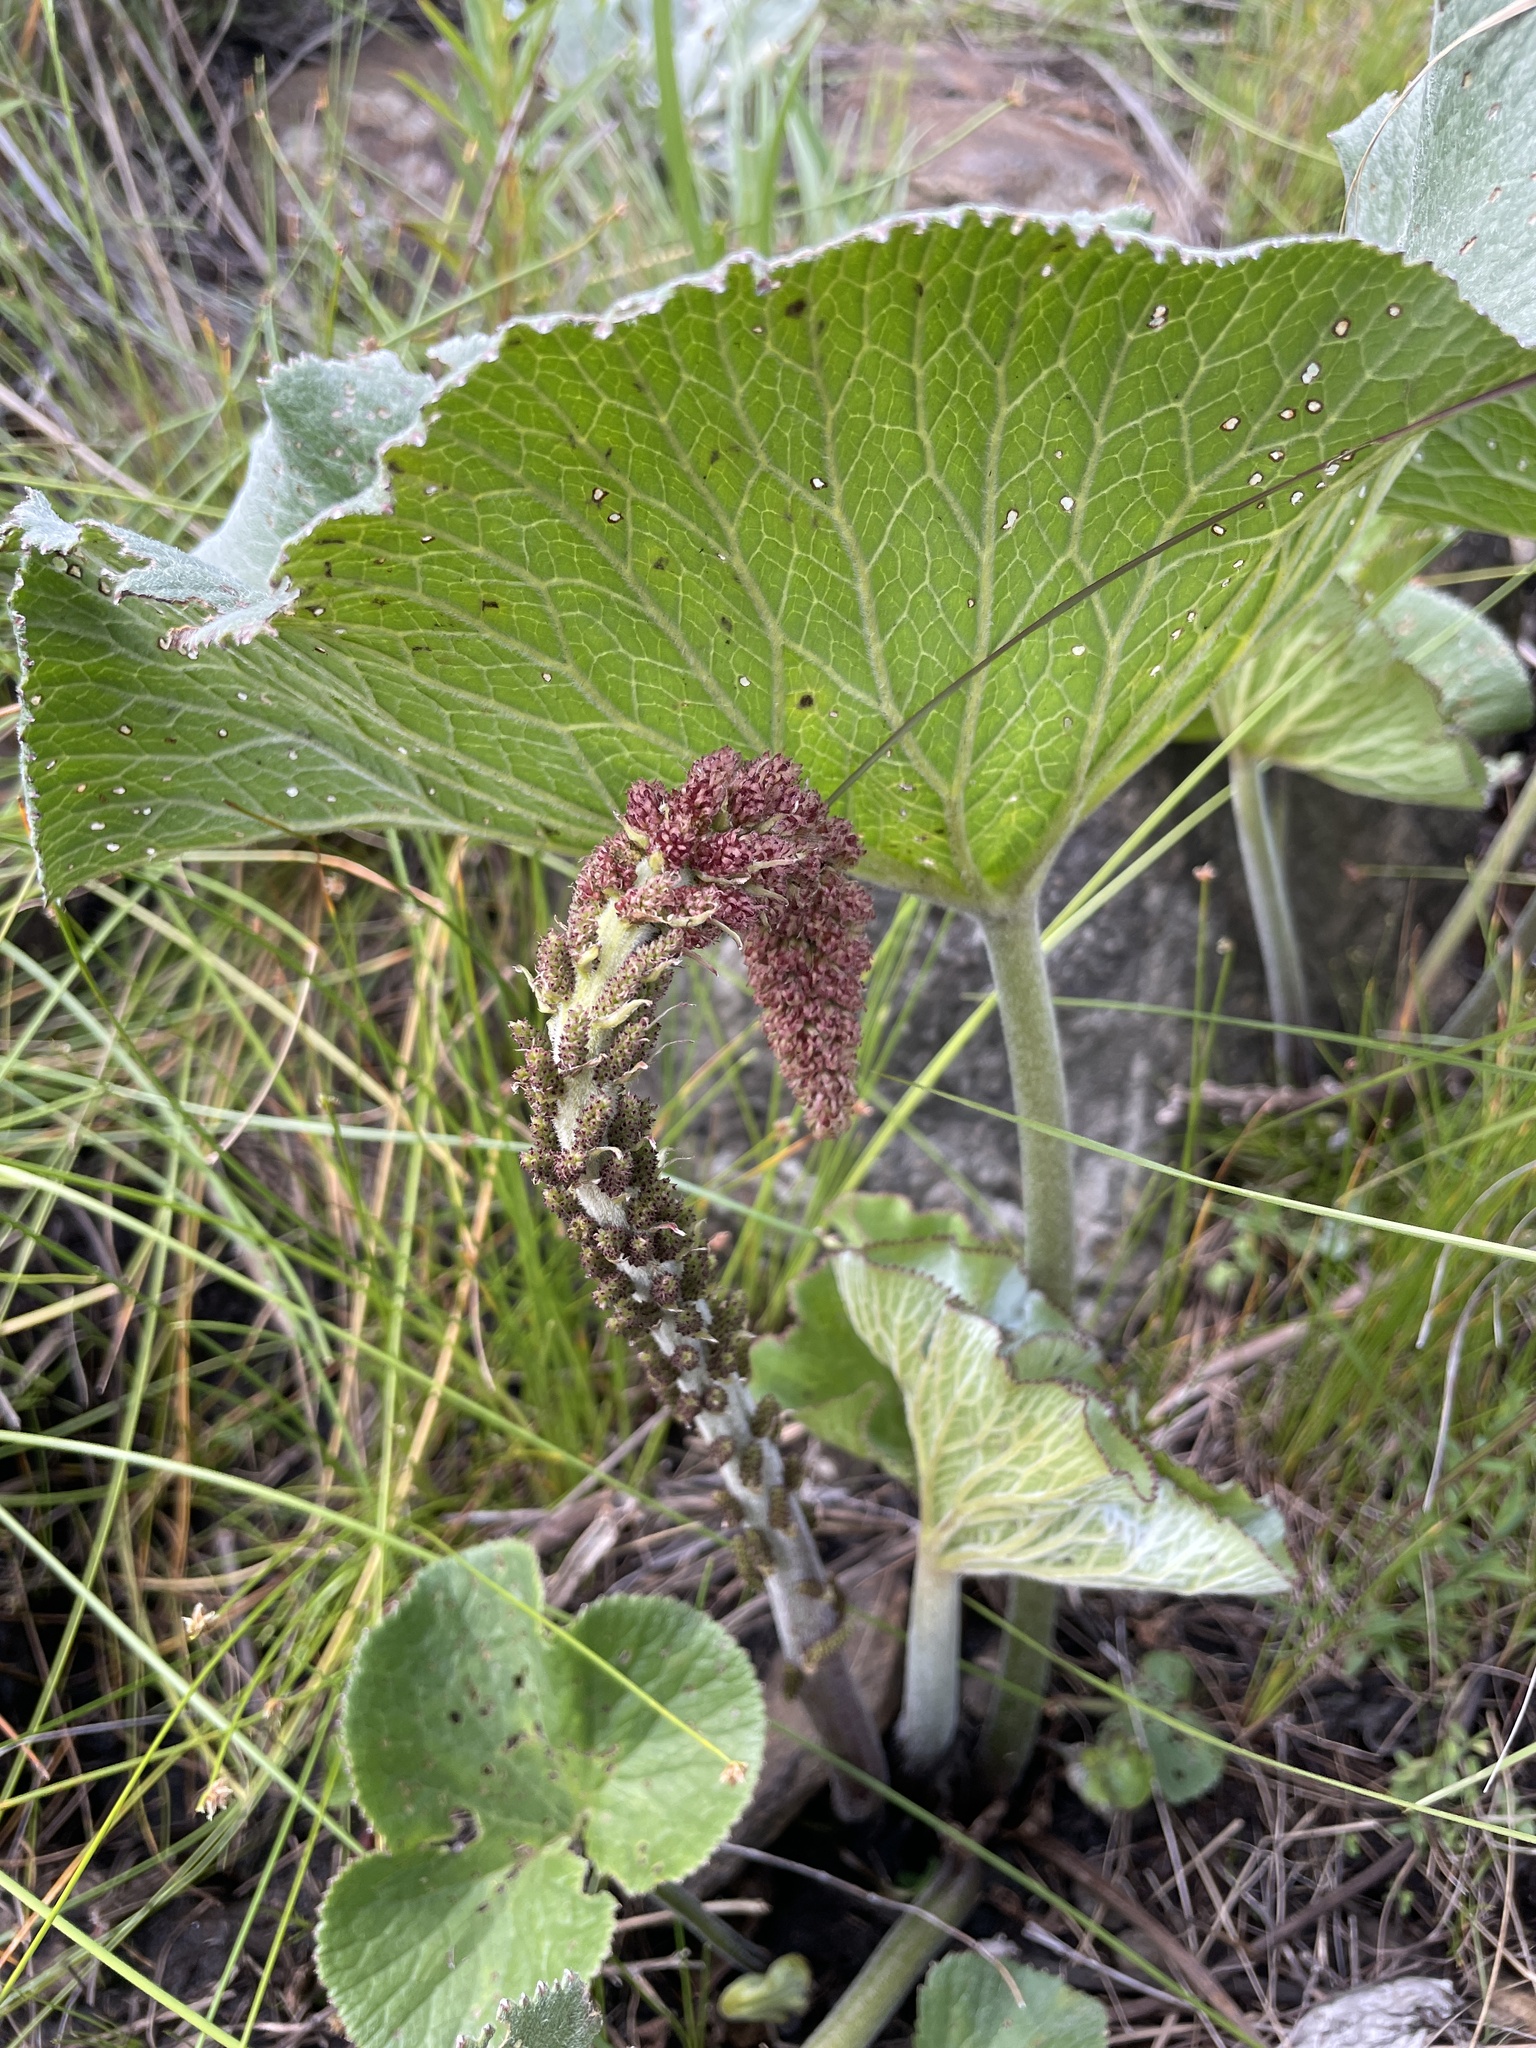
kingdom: Plantae
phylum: Tracheophyta
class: Magnoliopsida
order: Gunnerales
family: Gunneraceae
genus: Gunnera
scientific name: Gunnera perpensa
